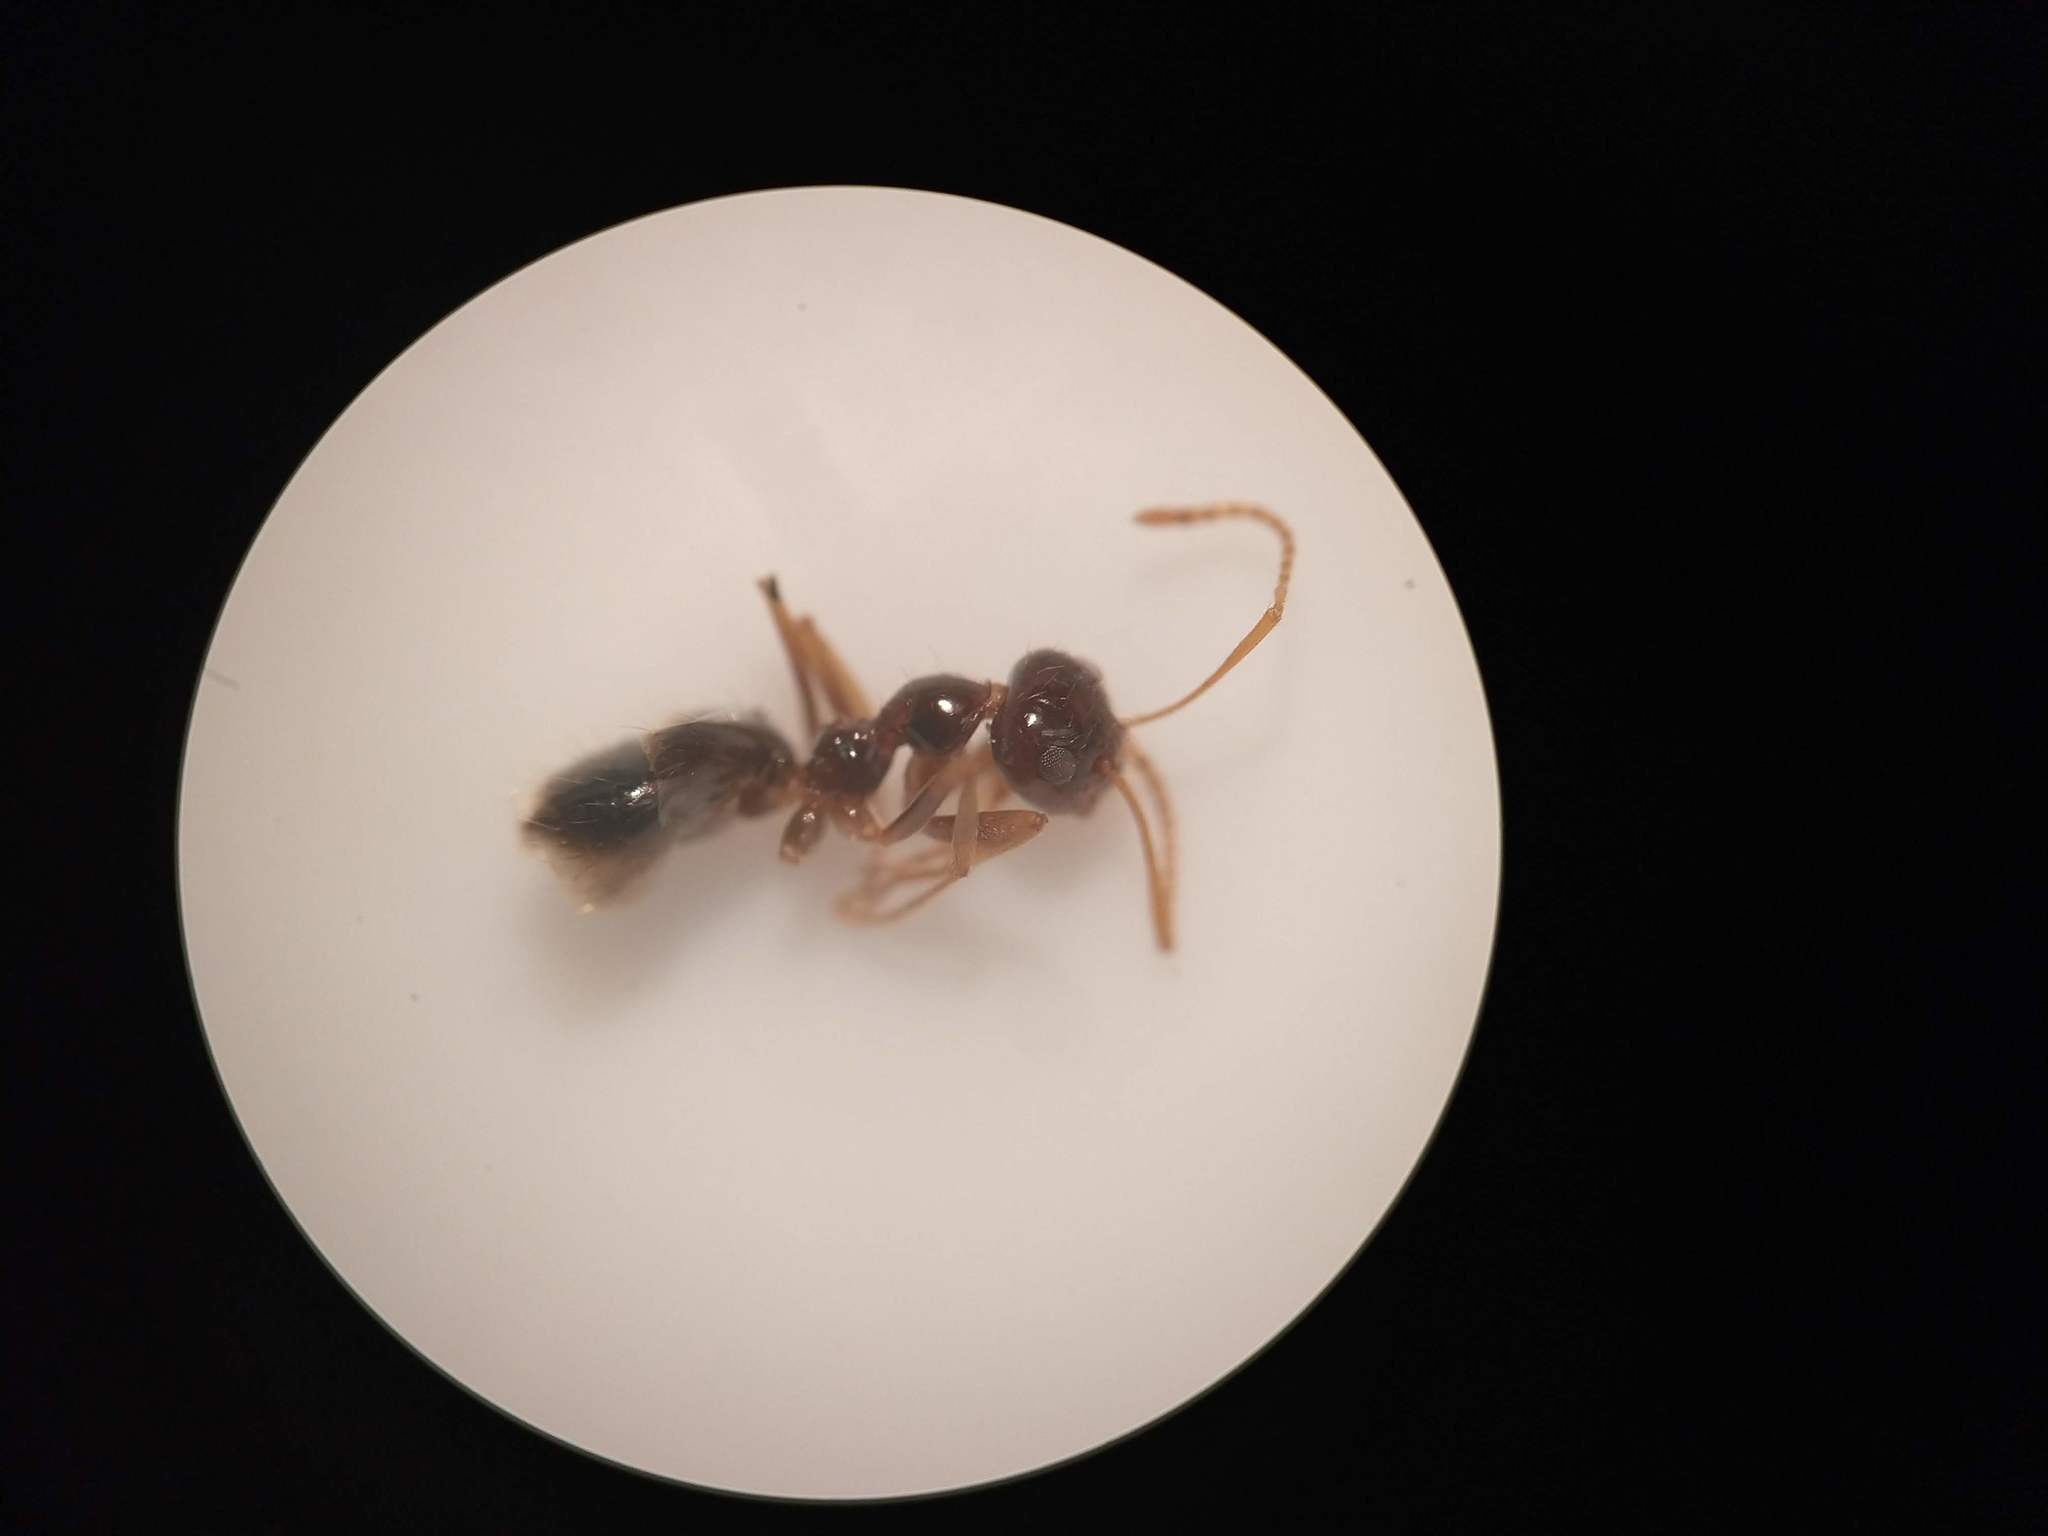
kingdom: Animalia
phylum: Arthropoda
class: Insecta
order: Hymenoptera
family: Formicidae
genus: Prenolepis
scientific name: Prenolepis imparis
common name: Small honey ant
